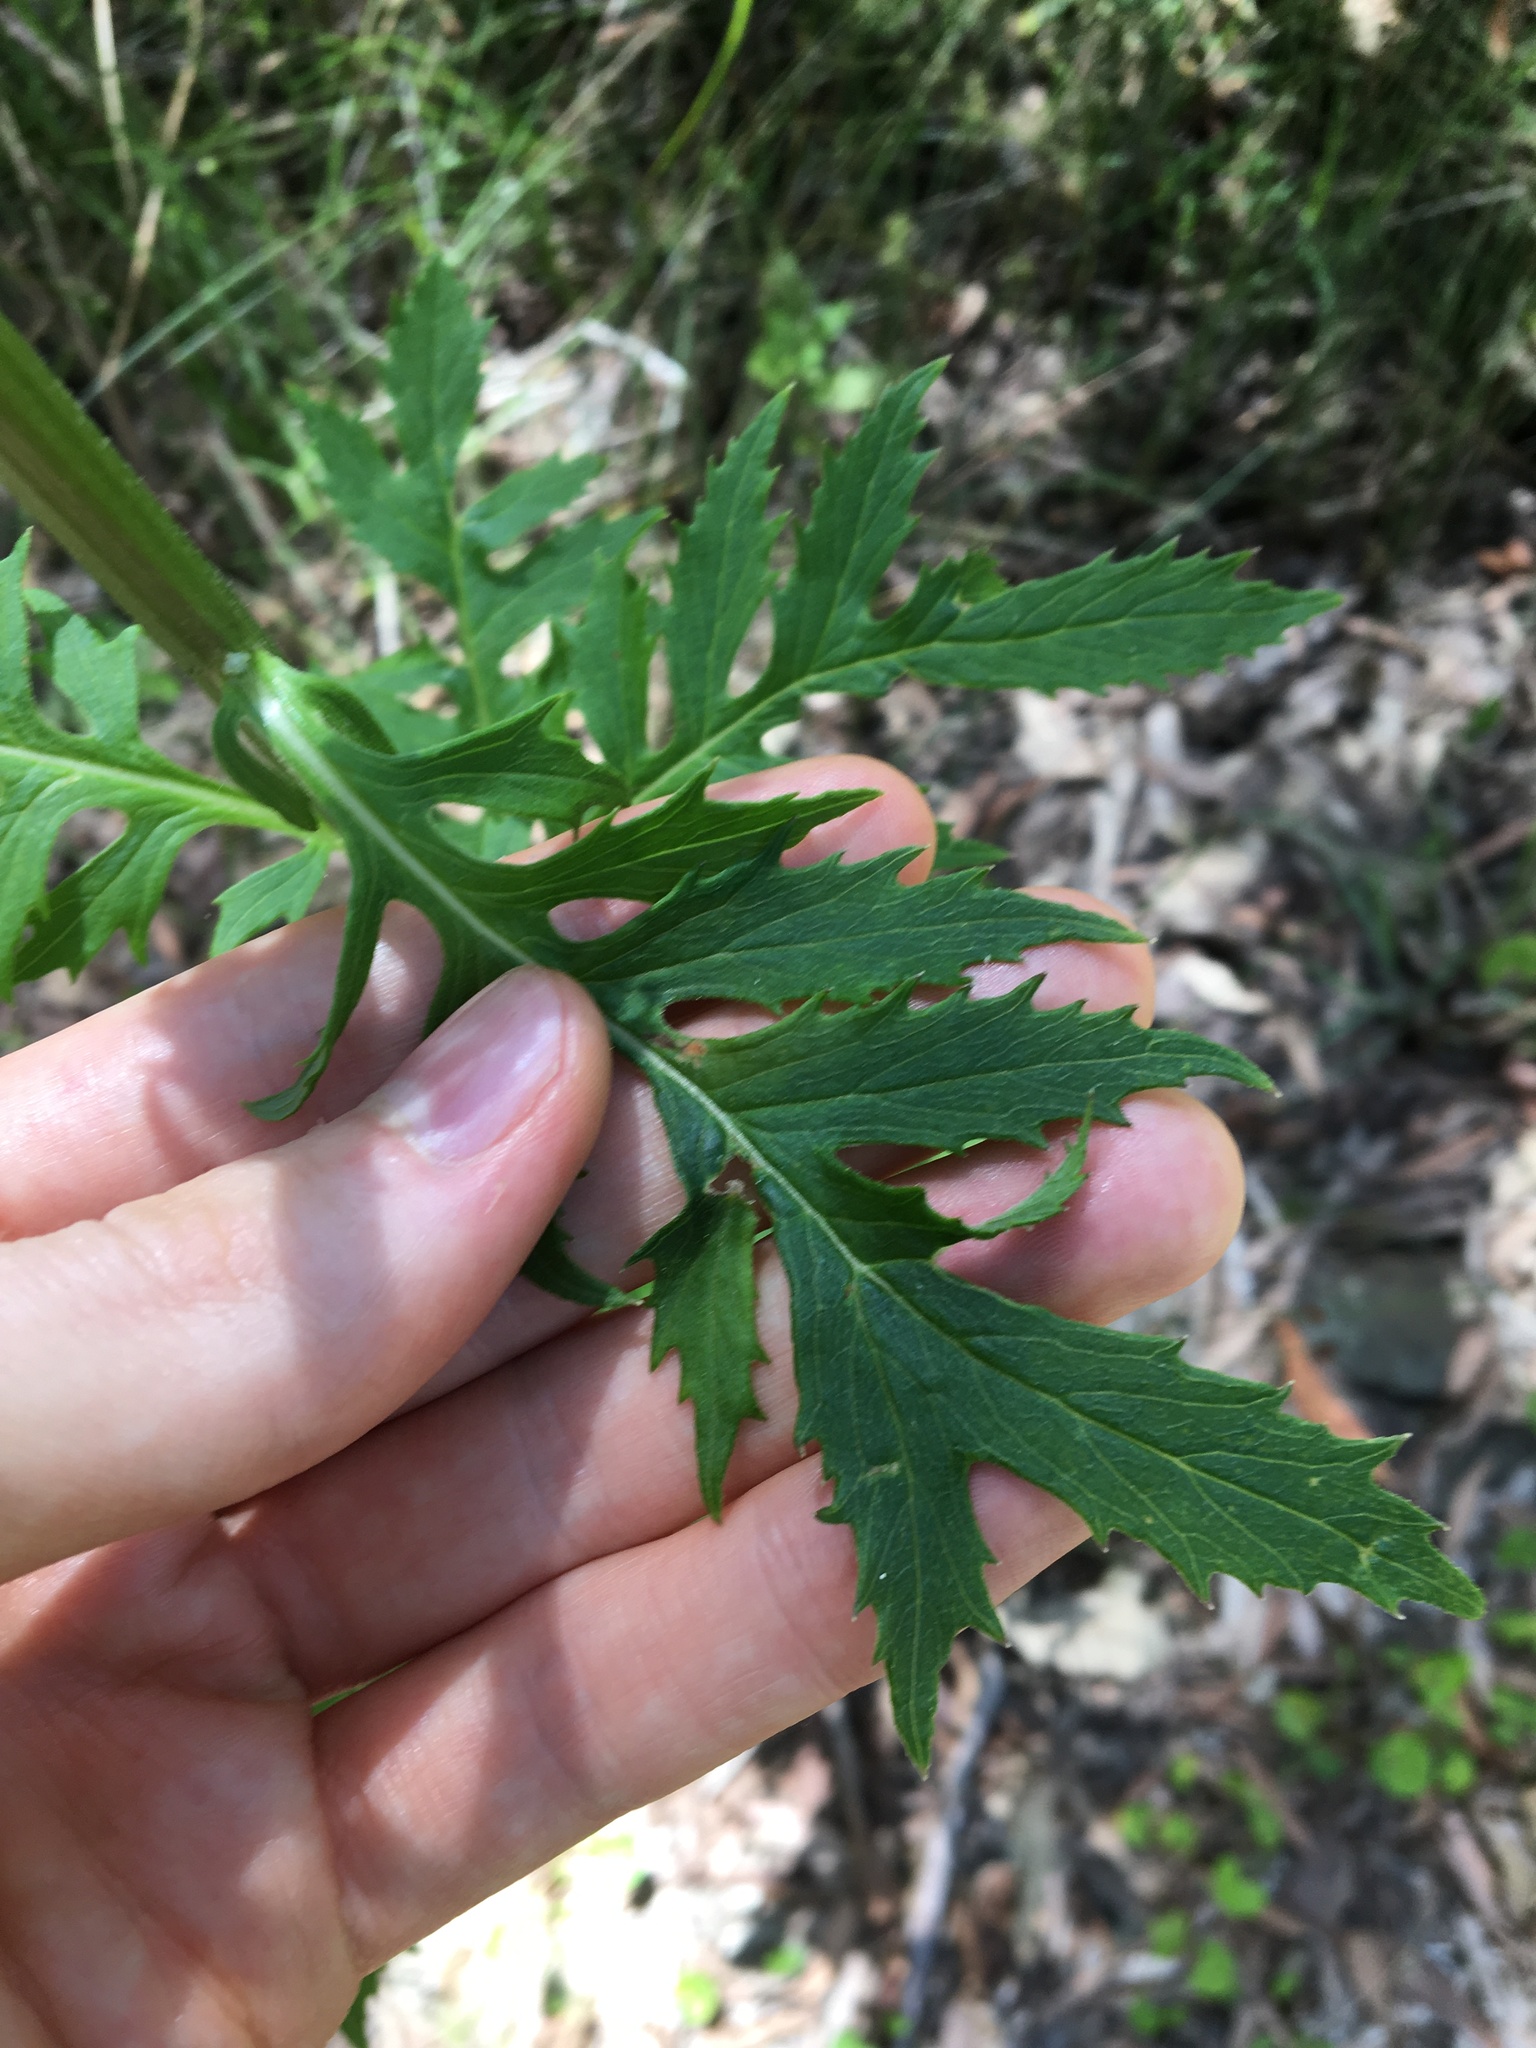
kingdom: Plantae
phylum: Tracheophyta
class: Magnoliopsida
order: Asterales
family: Asteraceae
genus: Erechtites
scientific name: Erechtites valerianifolius
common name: Tropical burnweed
